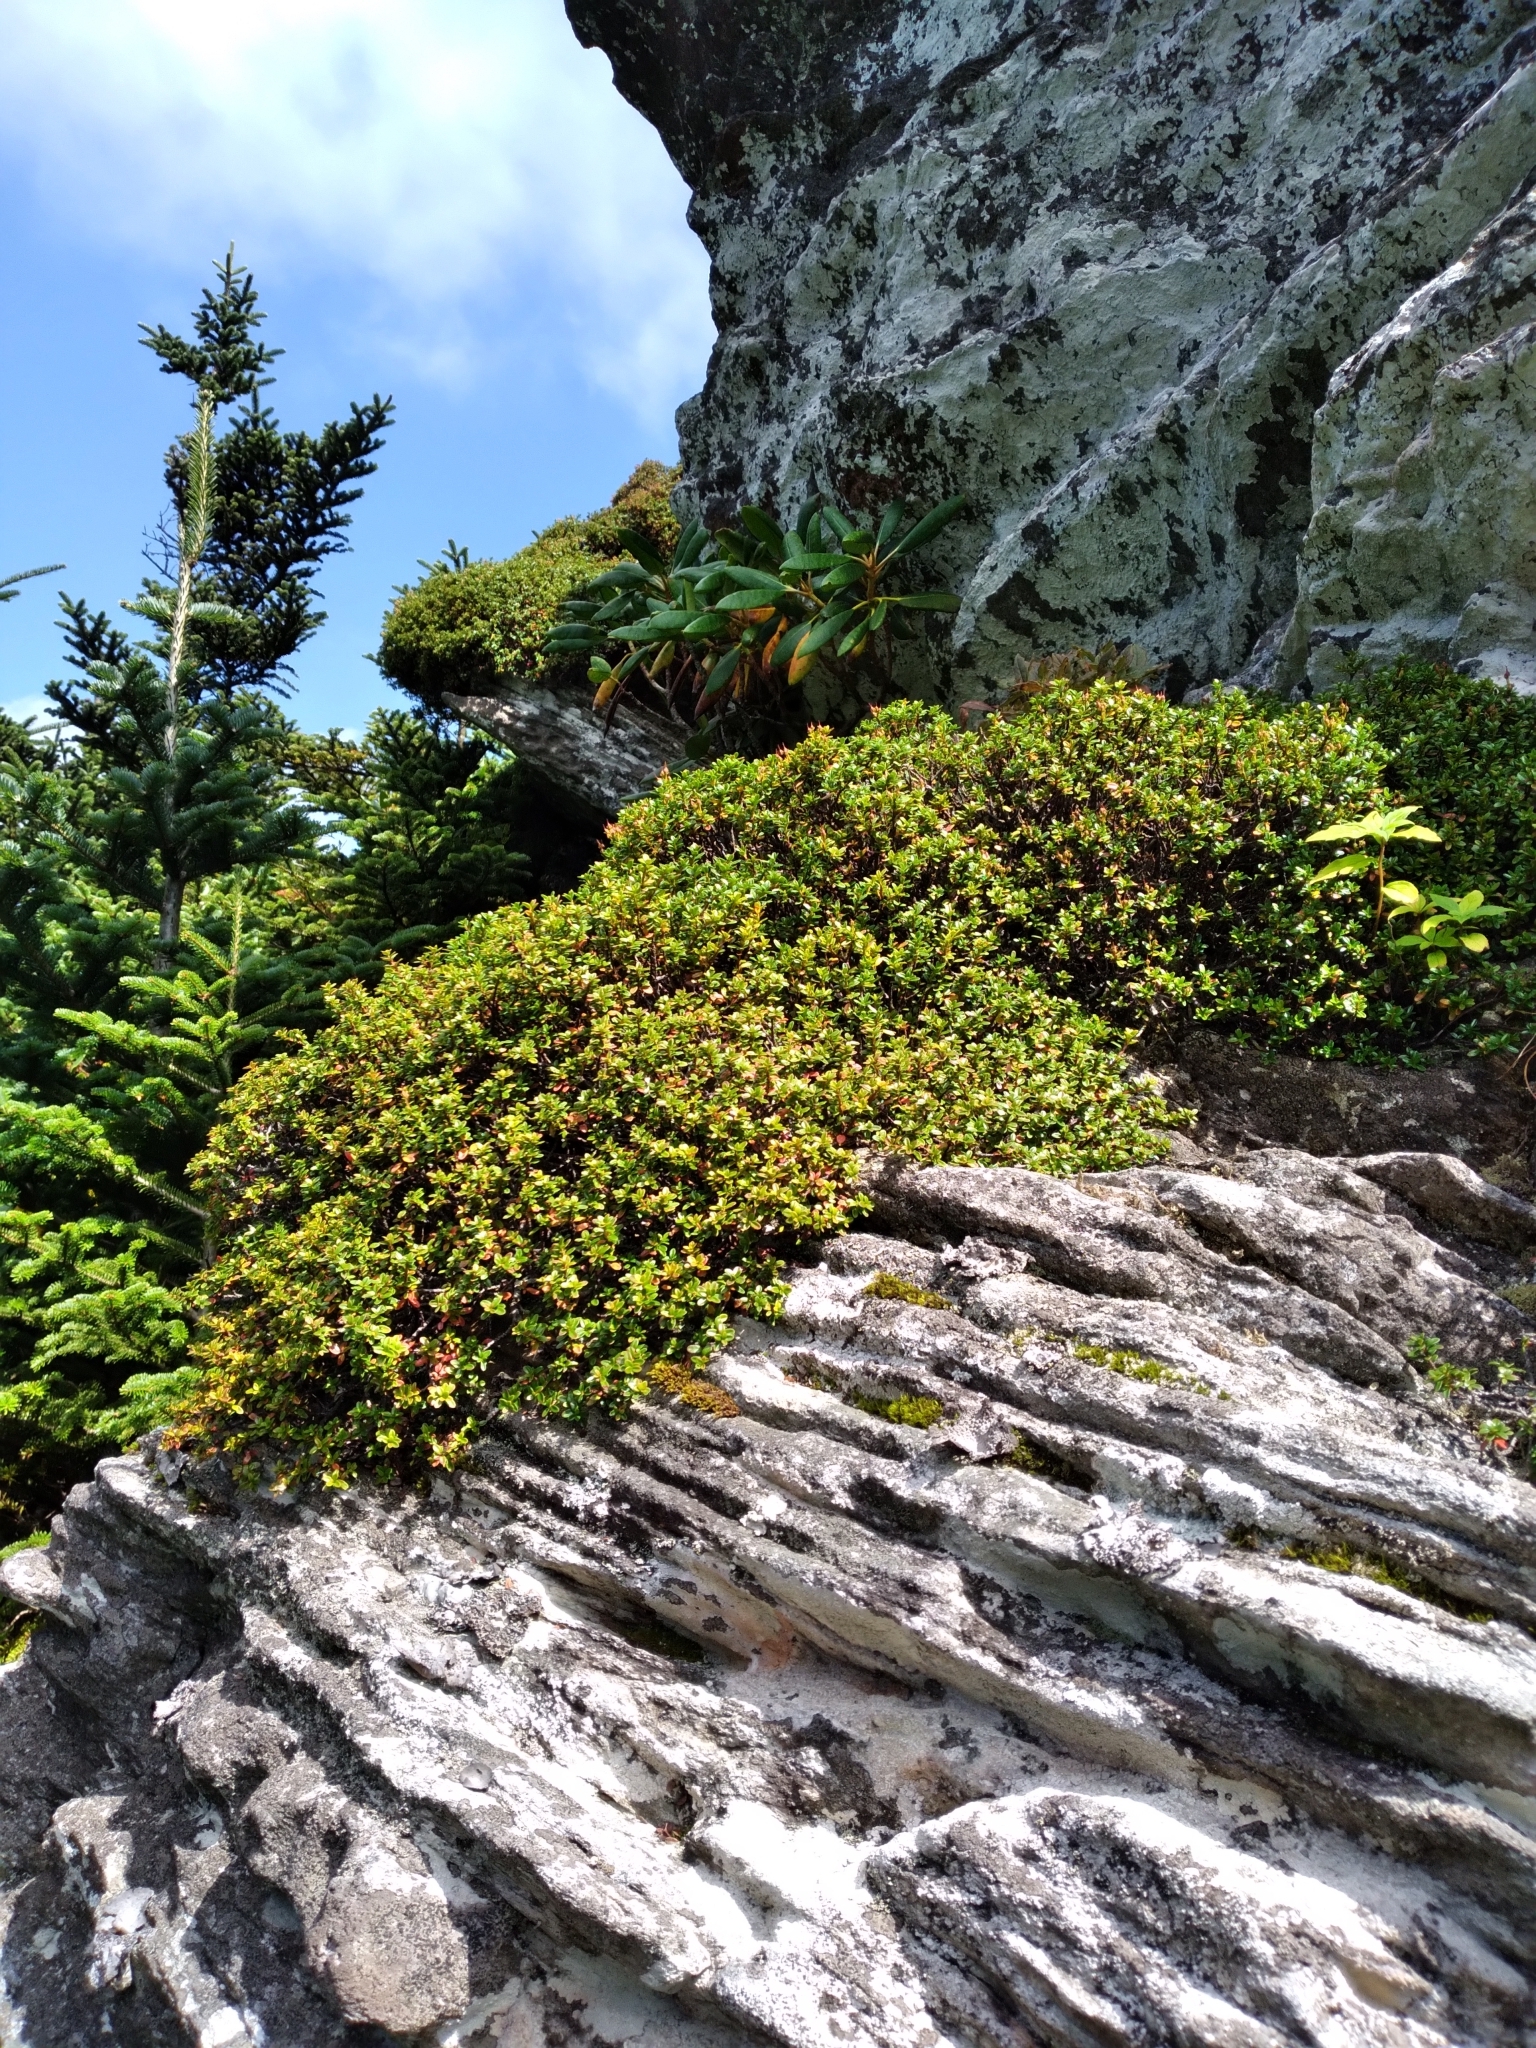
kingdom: Plantae
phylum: Tracheophyta
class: Magnoliopsida
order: Ericales
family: Ericaceae
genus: Kalmia
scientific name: Kalmia buxifolia
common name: Sandmyrtle
